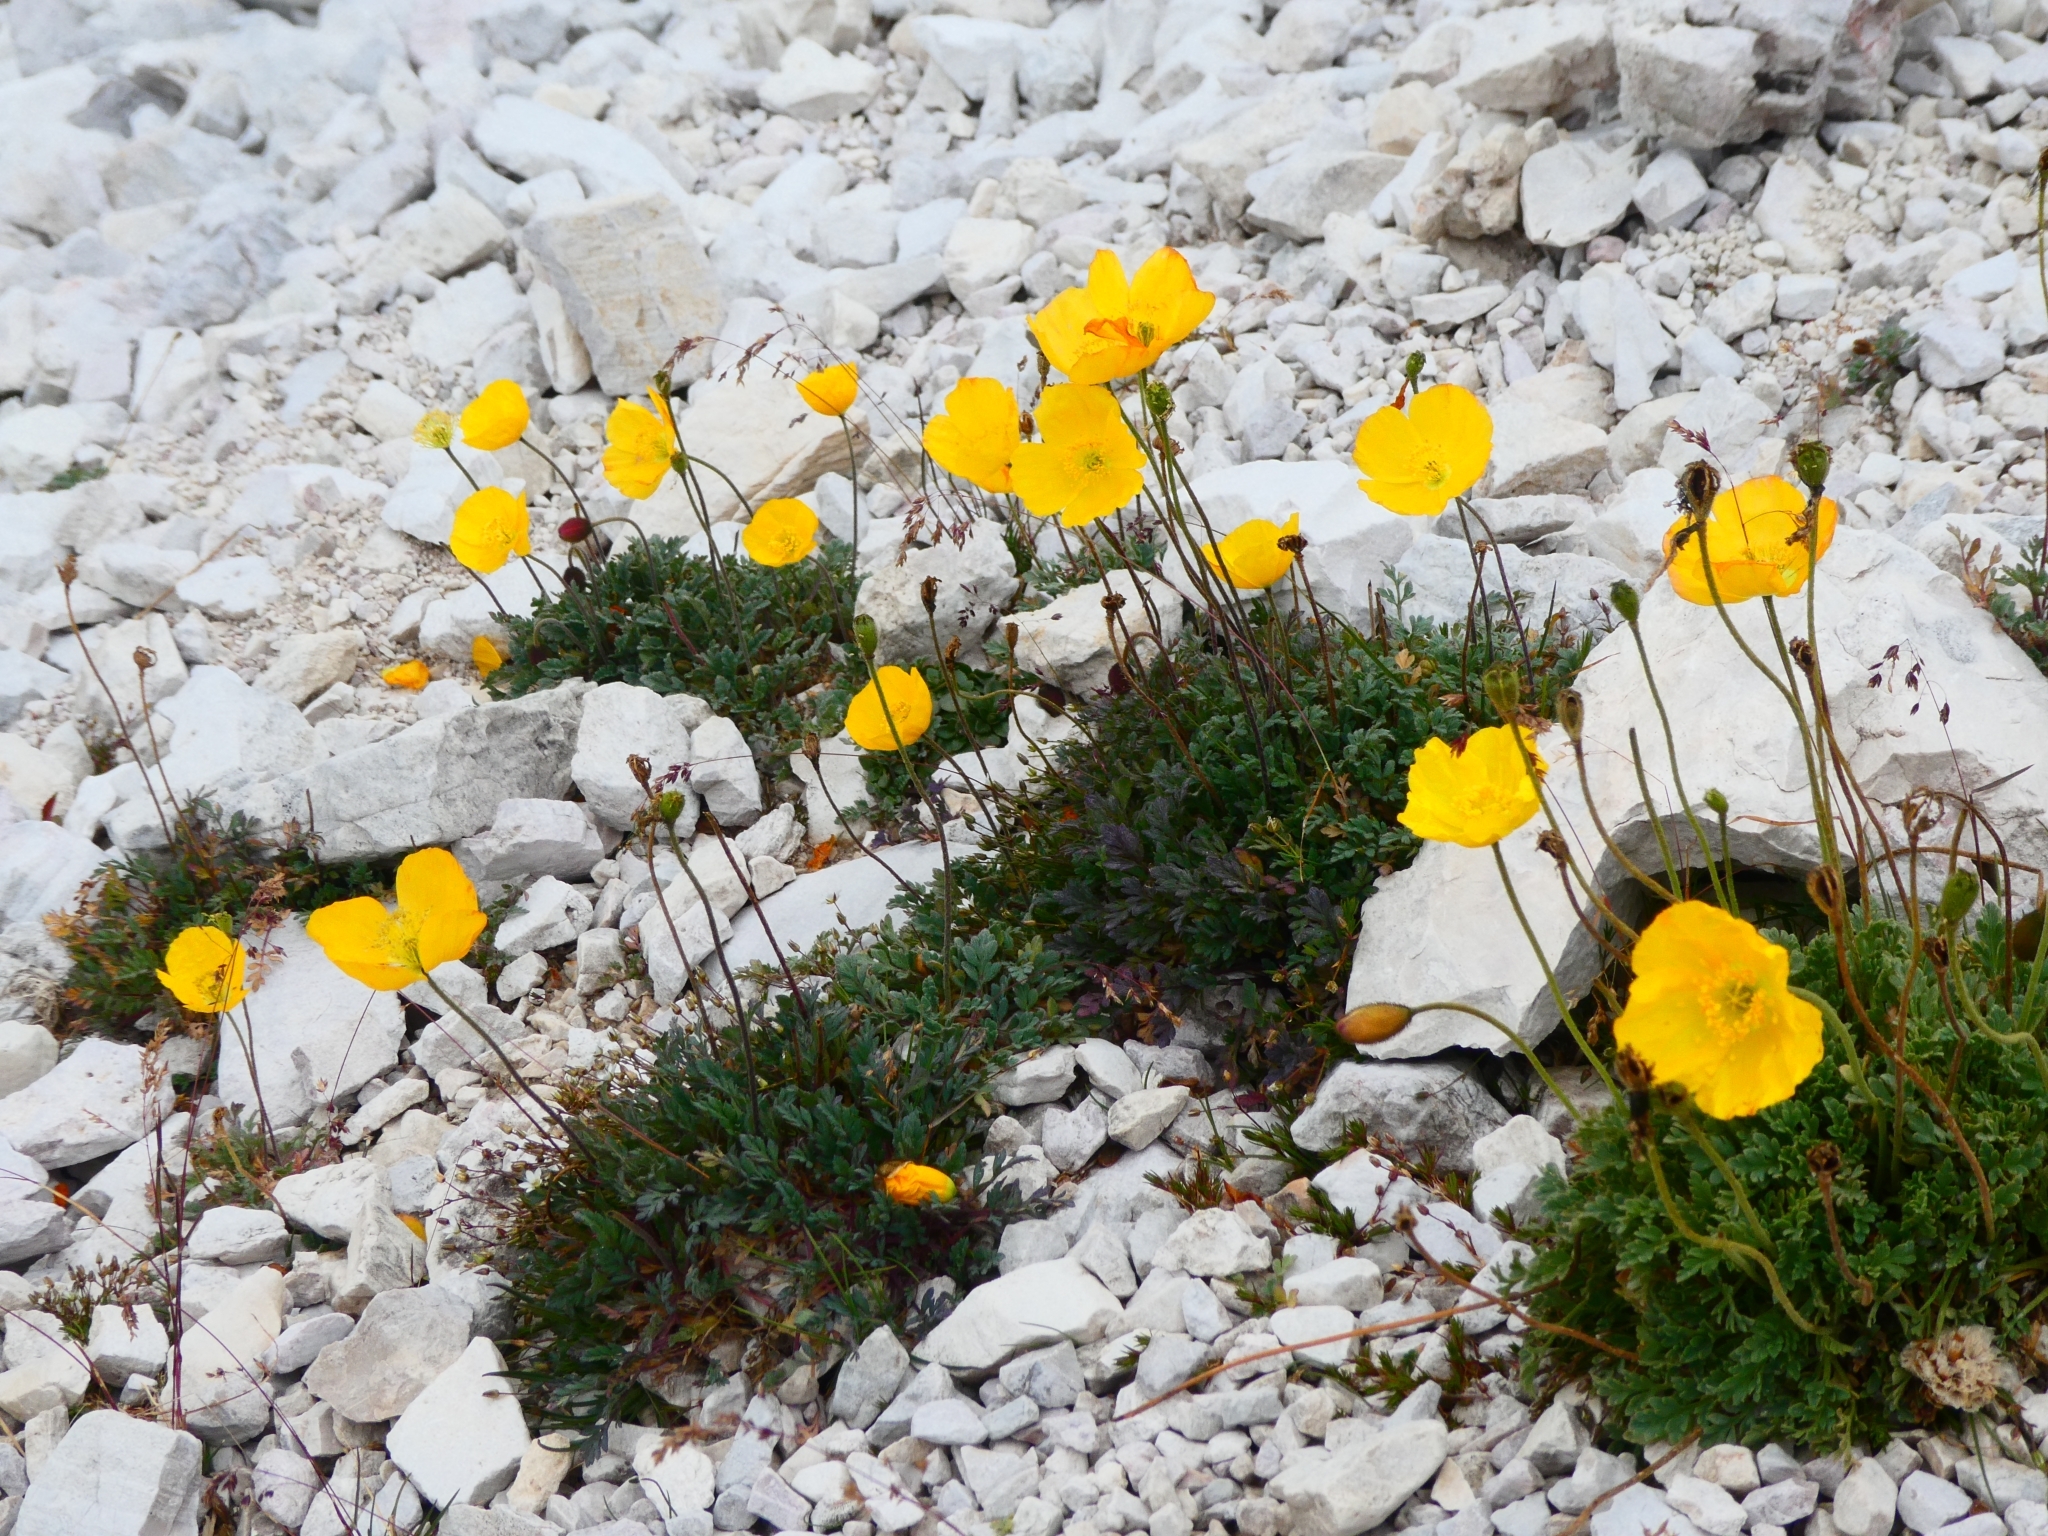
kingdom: Plantae
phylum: Tracheophyta
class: Magnoliopsida
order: Ranunculales
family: Papaveraceae
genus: Papaver
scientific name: Papaver alpinum
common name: Austrian poppy
